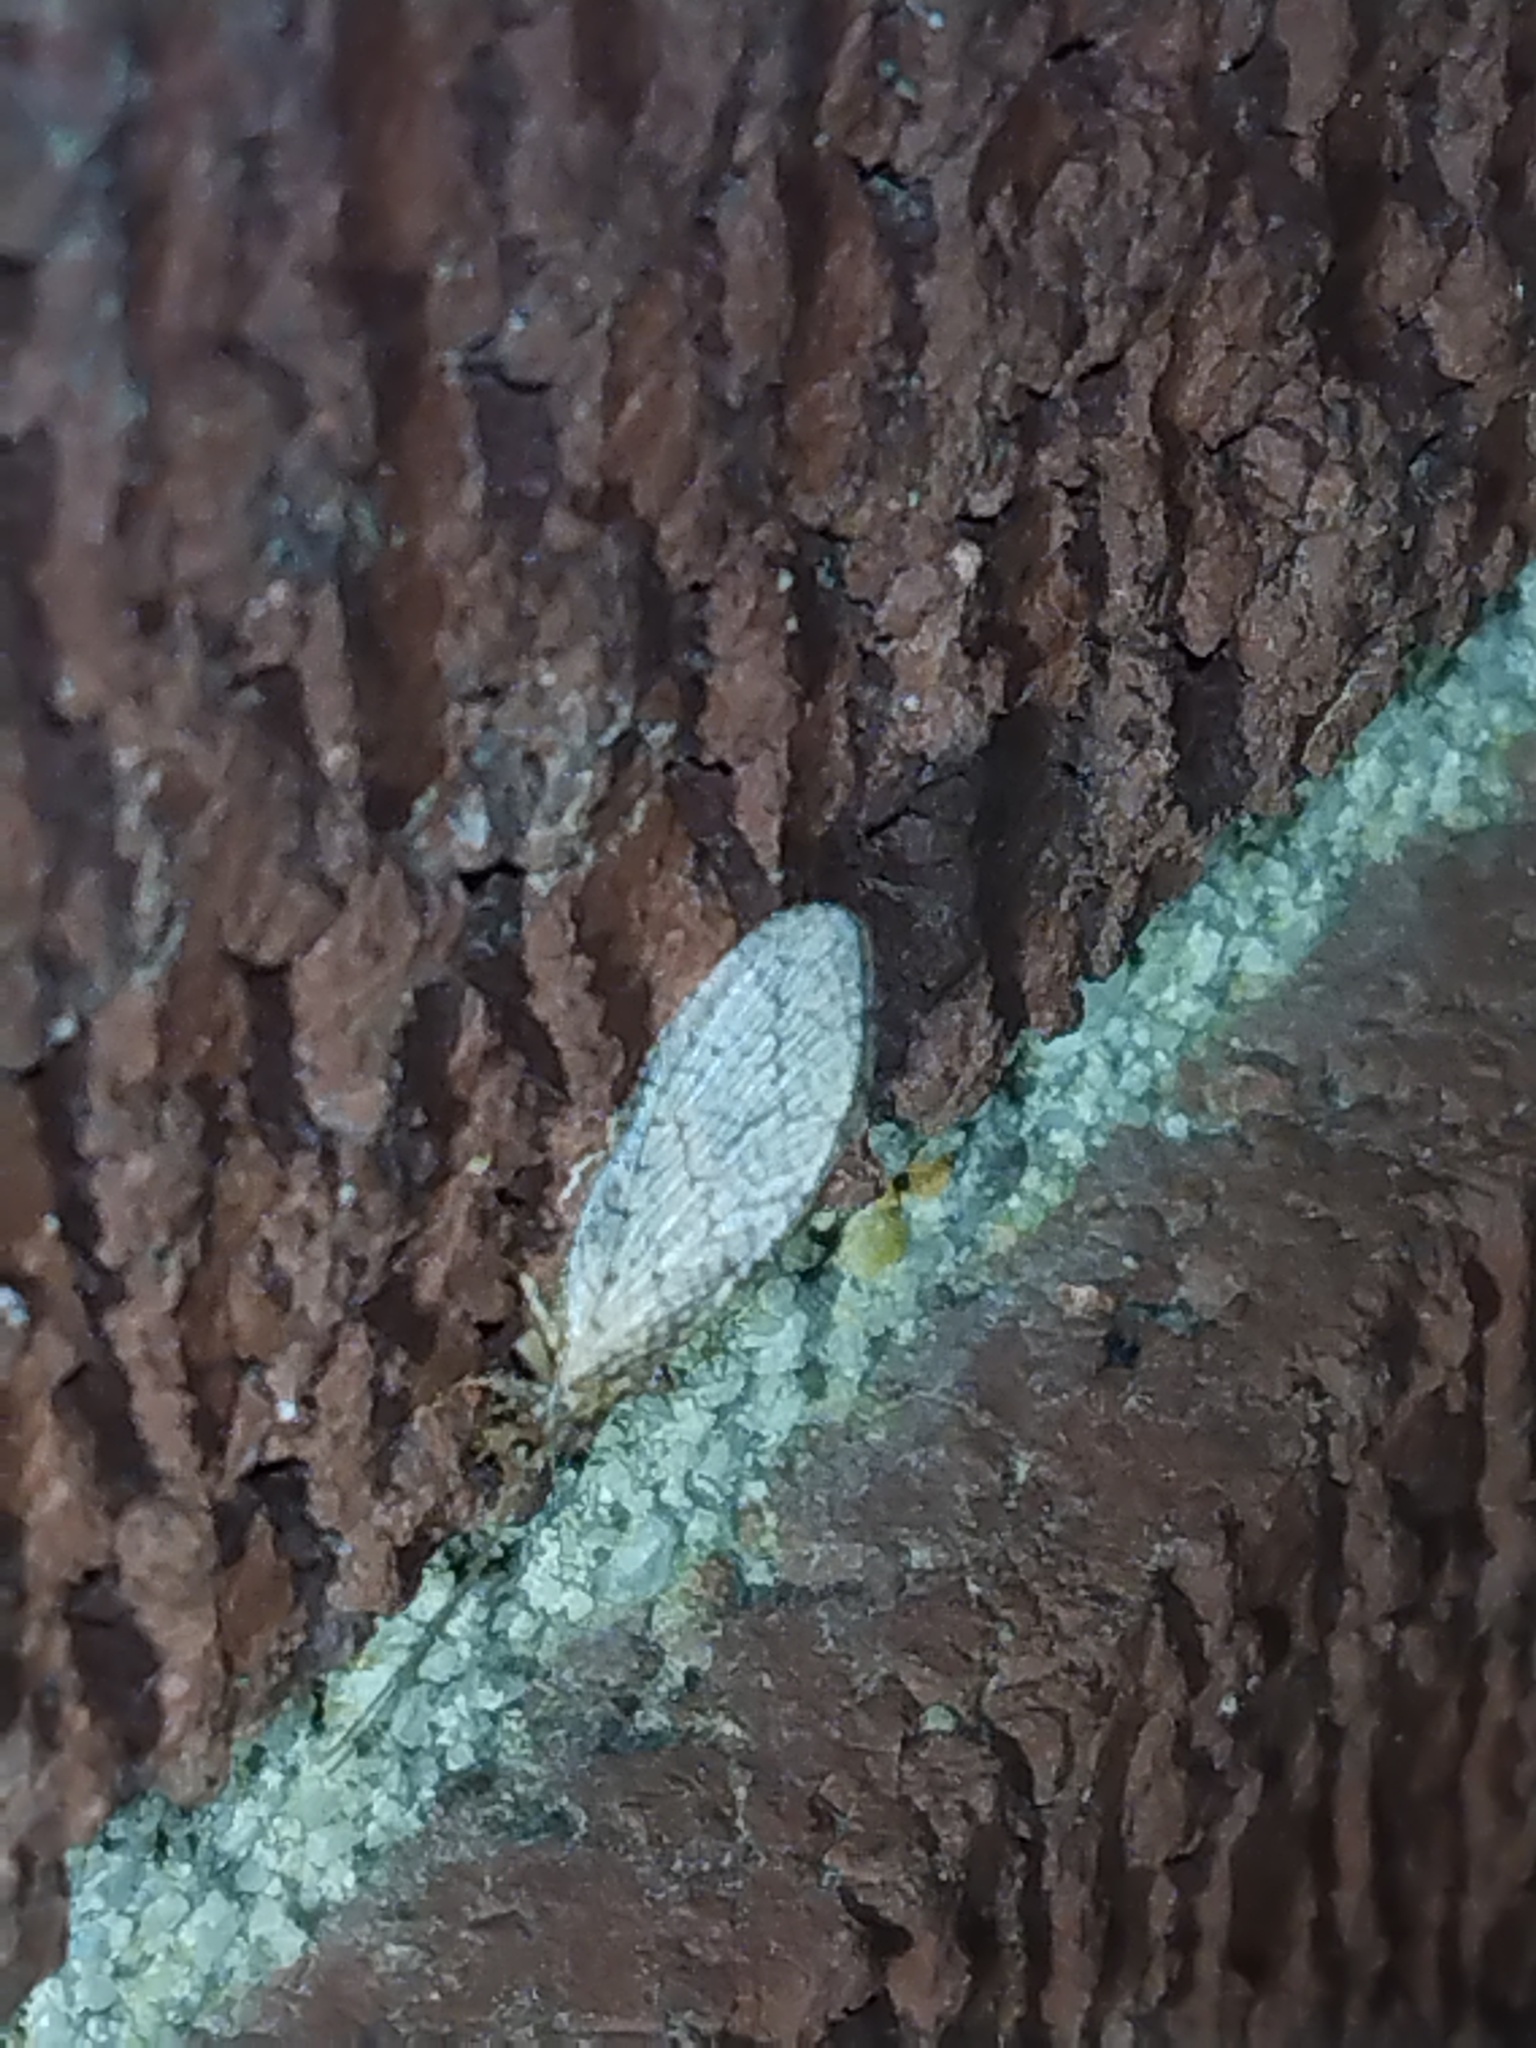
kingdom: Animalia
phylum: Arthropoda
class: Insecta
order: Neuroptera
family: Hemerobiidae
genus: Micromus
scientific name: Micromus posticus
